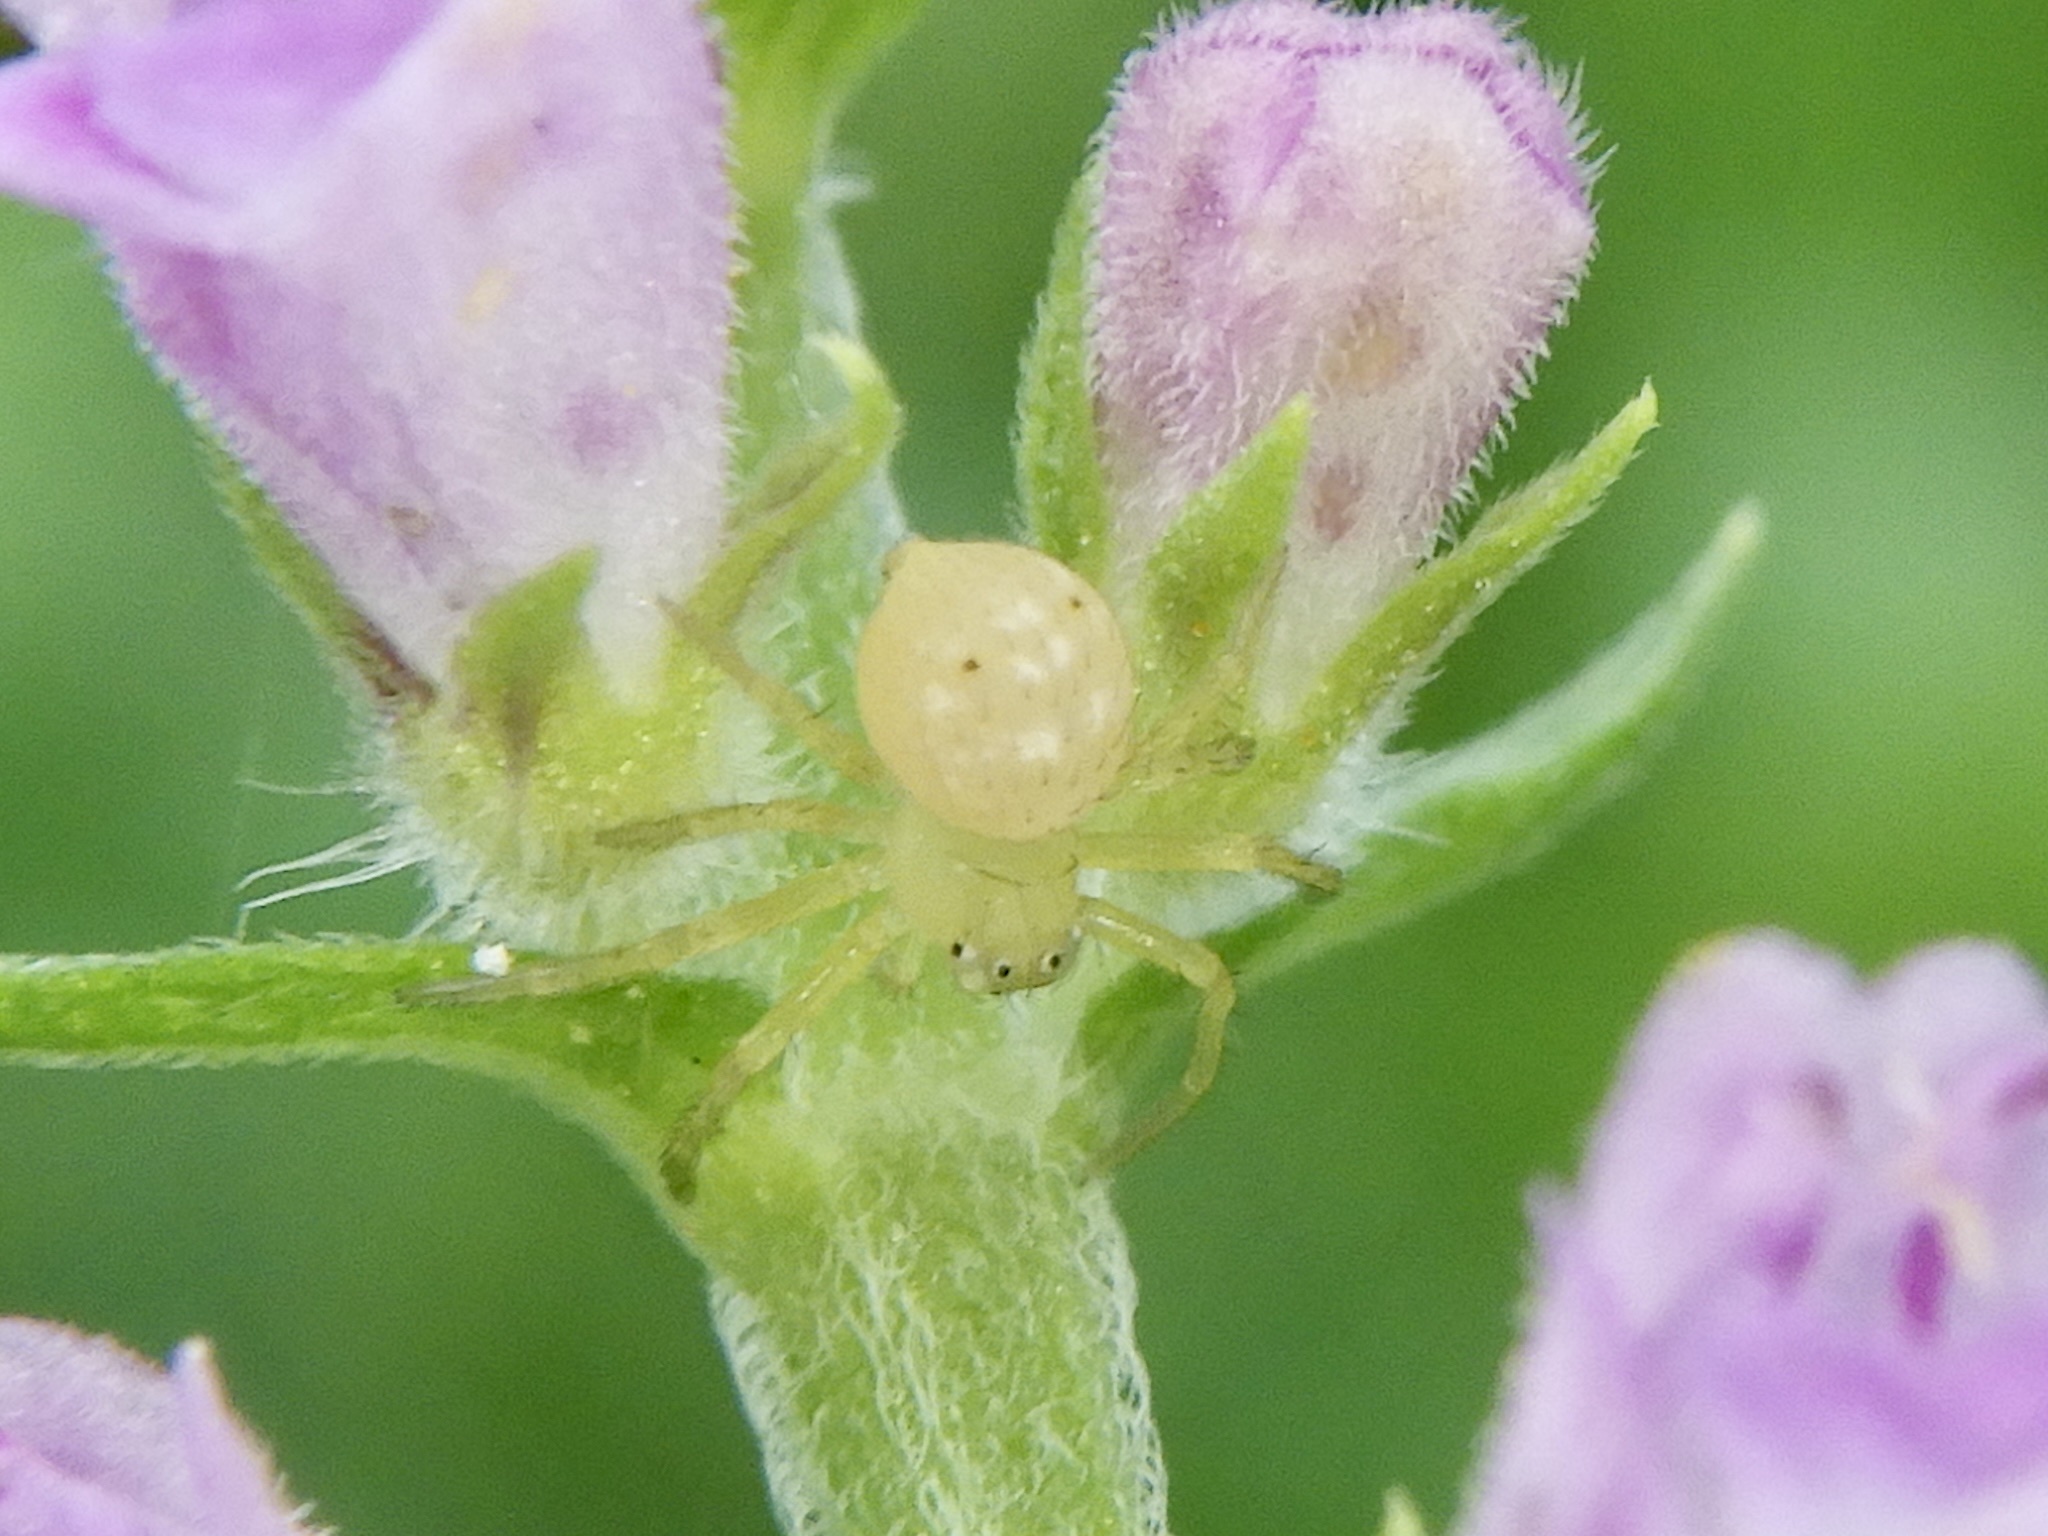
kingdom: Animalia
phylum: Arthropoda
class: Arachnida
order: Araneae
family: Thomisidae
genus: Diaea
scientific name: Diaea subdola
